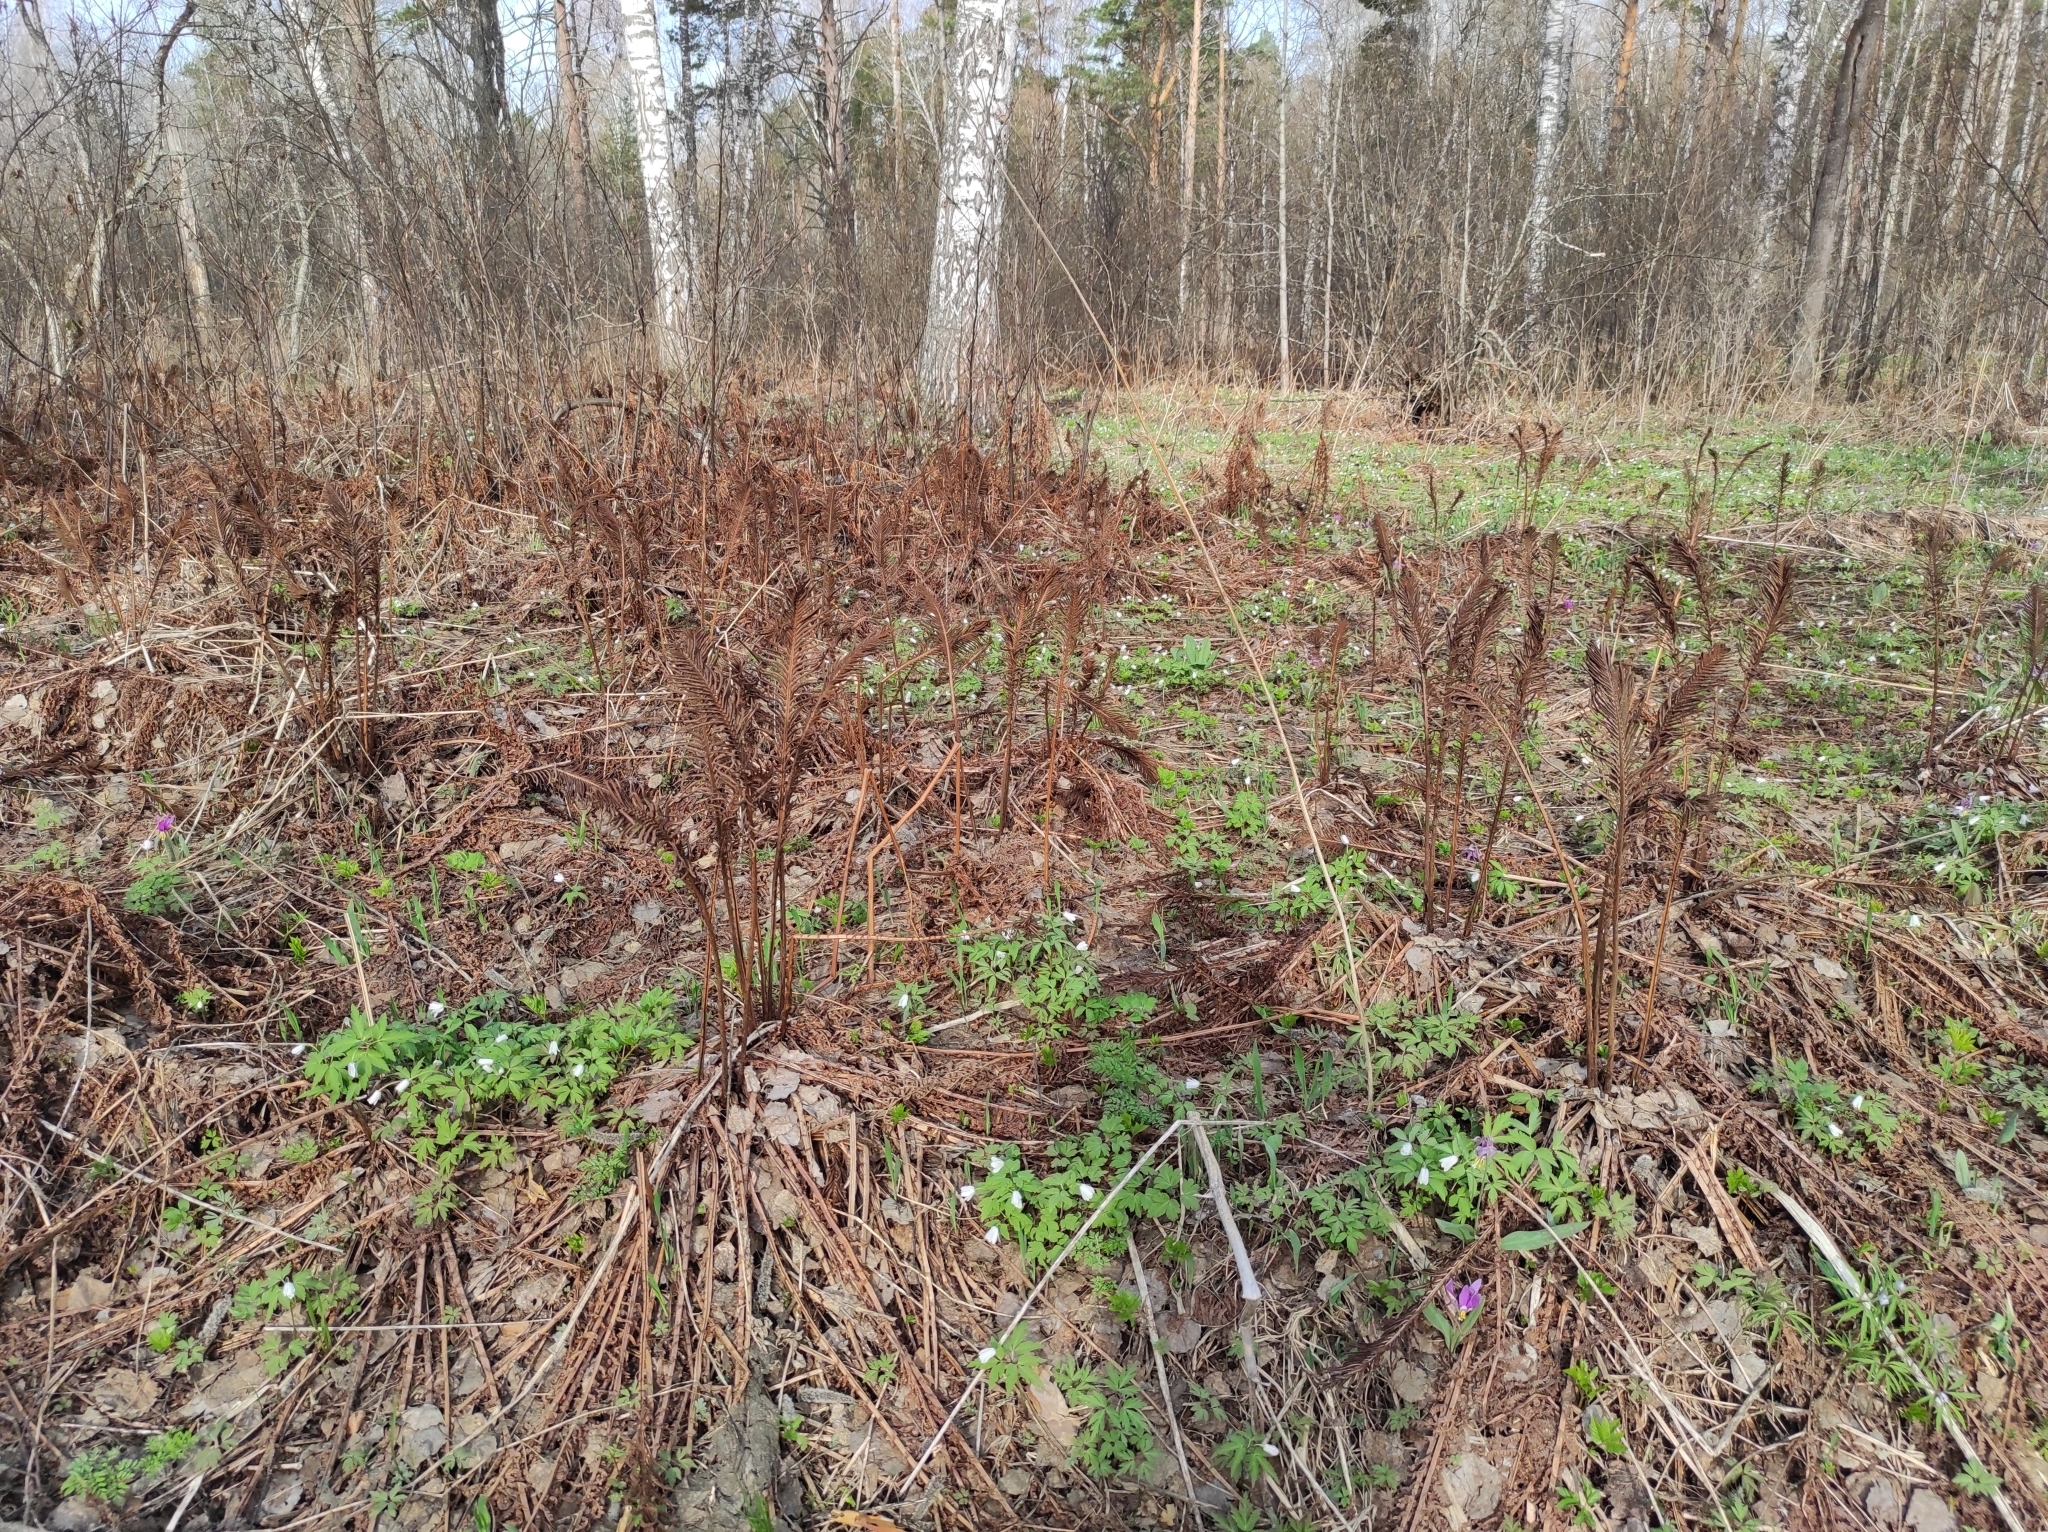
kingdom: Plantae
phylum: Tracheophyta
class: Pinopsida
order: Pinales
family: Pinaceae
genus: Pinus
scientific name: Pinus sylvestris
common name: Scots pine
